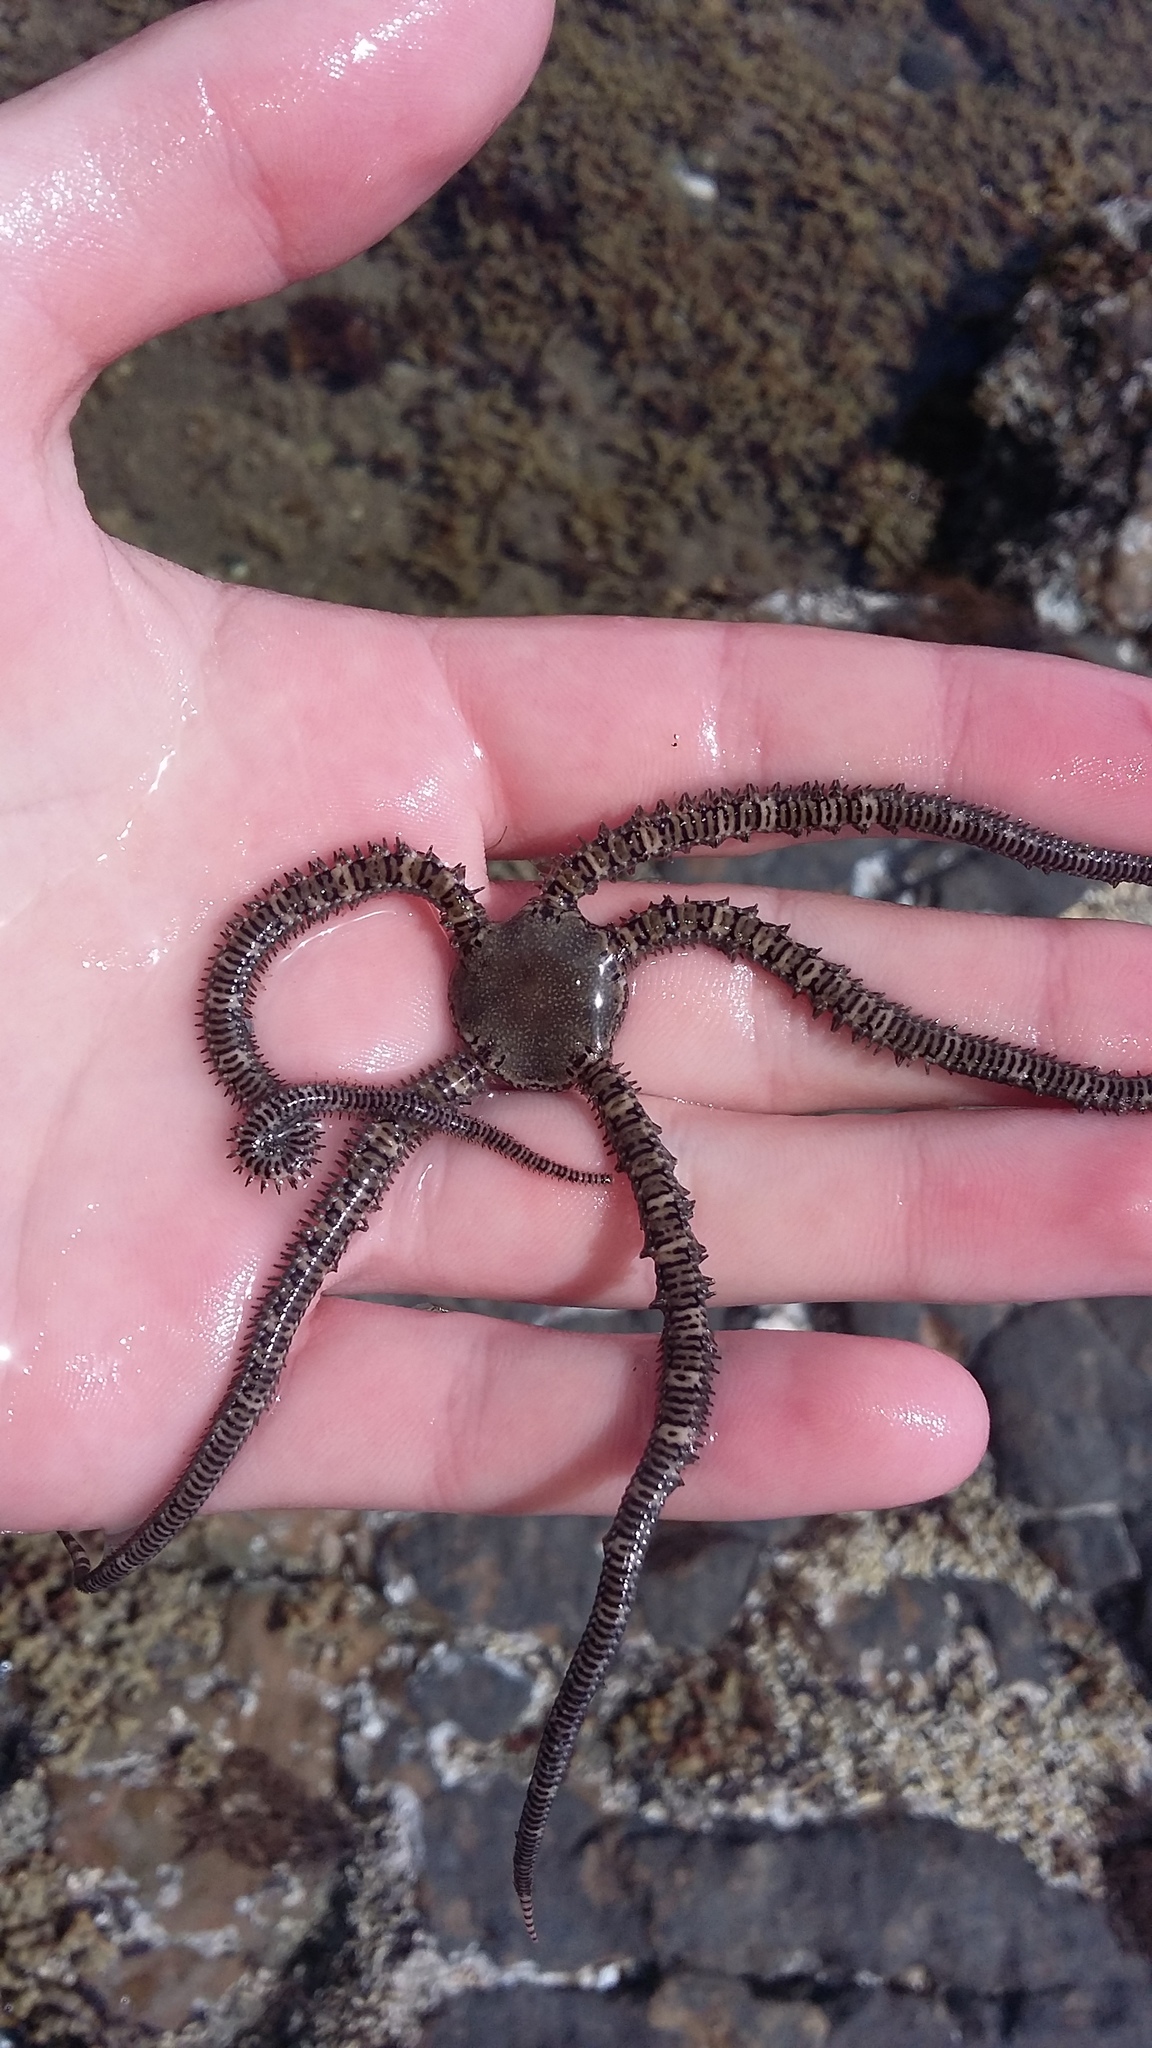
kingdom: Animalia
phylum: Echinodermata
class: Ophiuroidea
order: Amphilepidida
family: Ophionereididae
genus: Ophionereis
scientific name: Ophionereis fasciata
